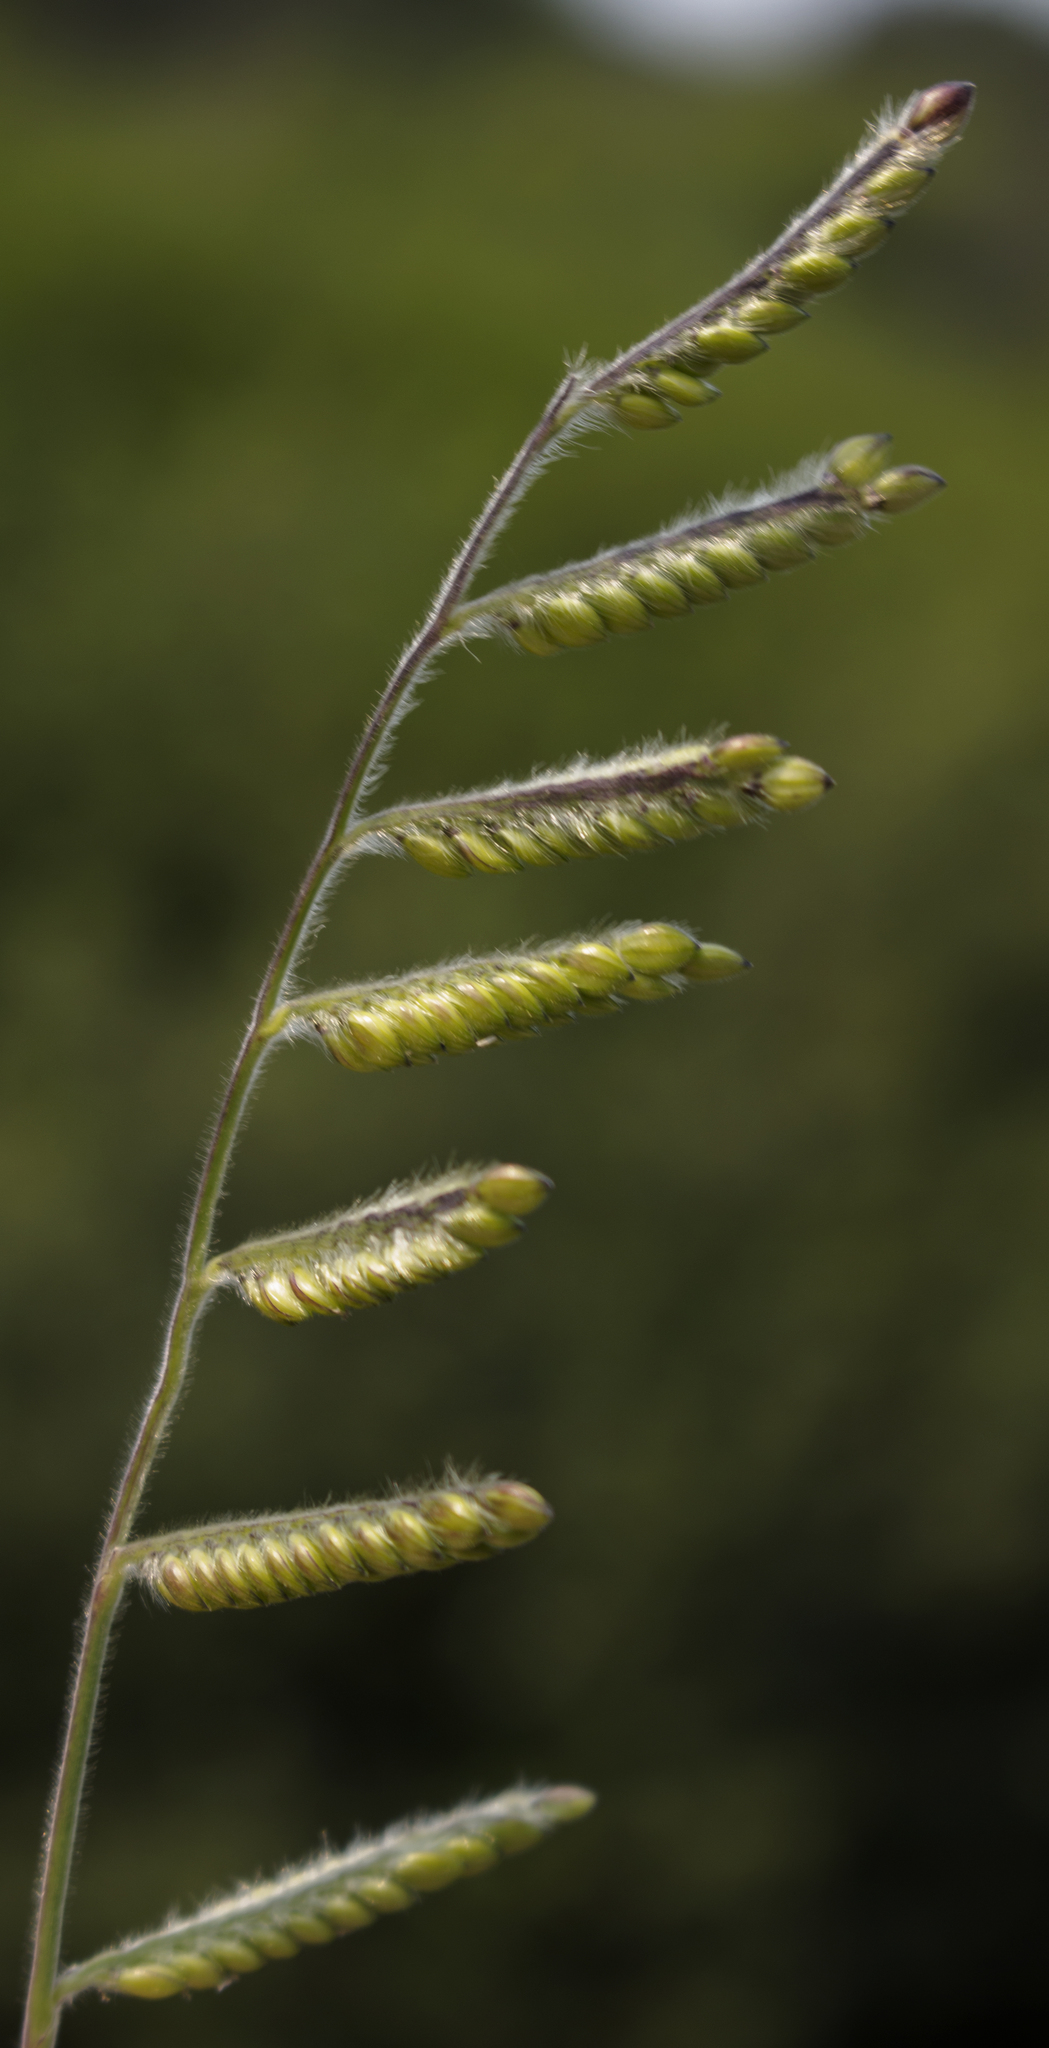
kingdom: Plantae
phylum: Tracheophyta
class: Liliopsida
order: Poales
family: Poaceae
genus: Eriochloa
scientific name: Eriochloa villosa
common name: Hairy cupgrass
